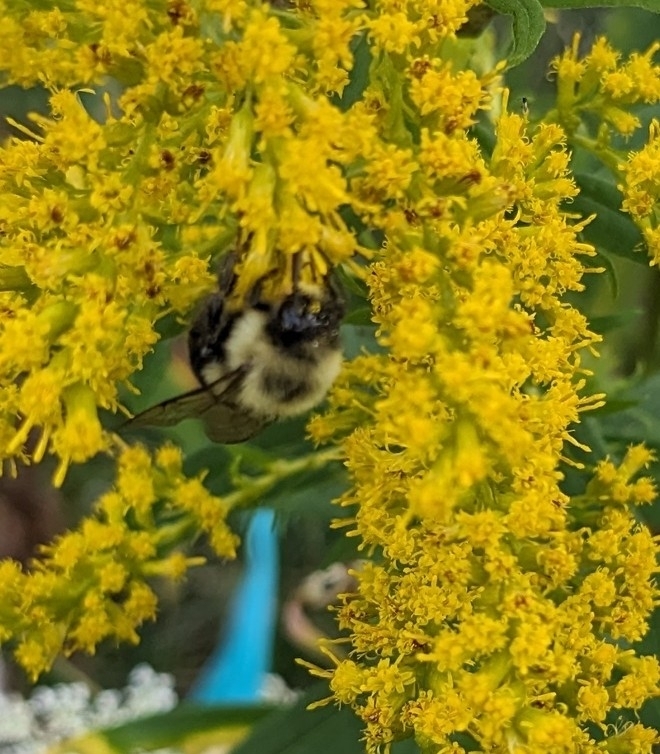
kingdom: Animalia
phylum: Arthropoda
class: Insecta
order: Hymenoptera
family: Apidae
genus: Bombus
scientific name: Bombus impatiens
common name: Common eastern bumble bee
